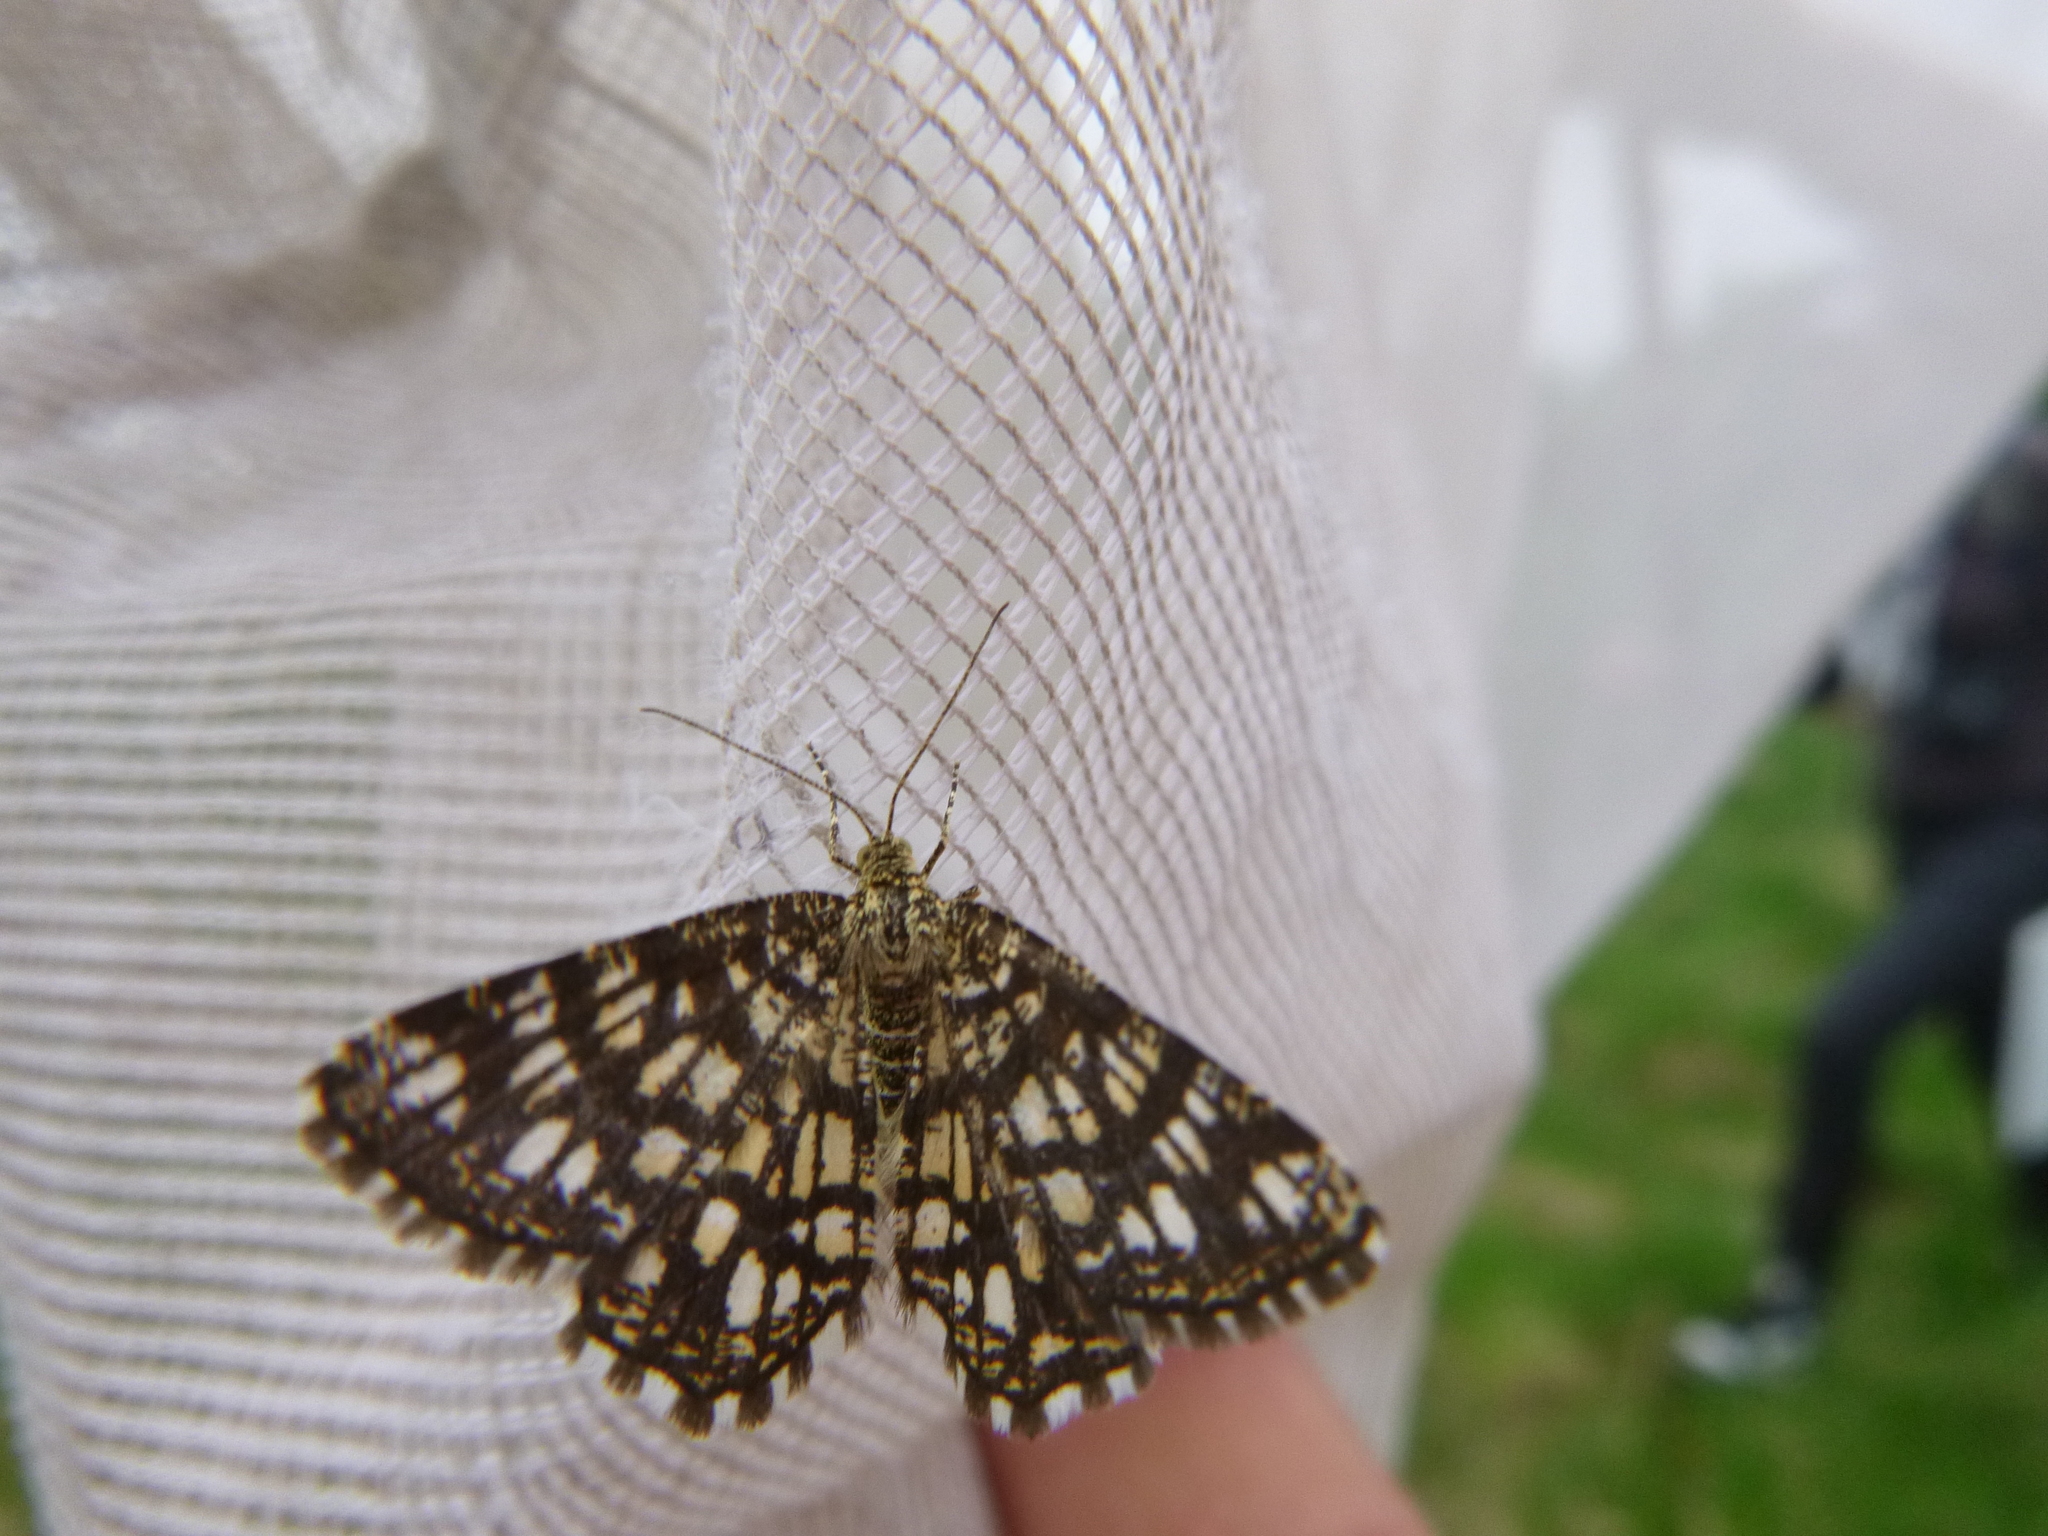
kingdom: Animalia
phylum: Arthropoda
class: Insecta
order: Lepidoptera
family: Geometridae
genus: Chiasmia
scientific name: Chiasmia clathrata
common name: Latticed heath
